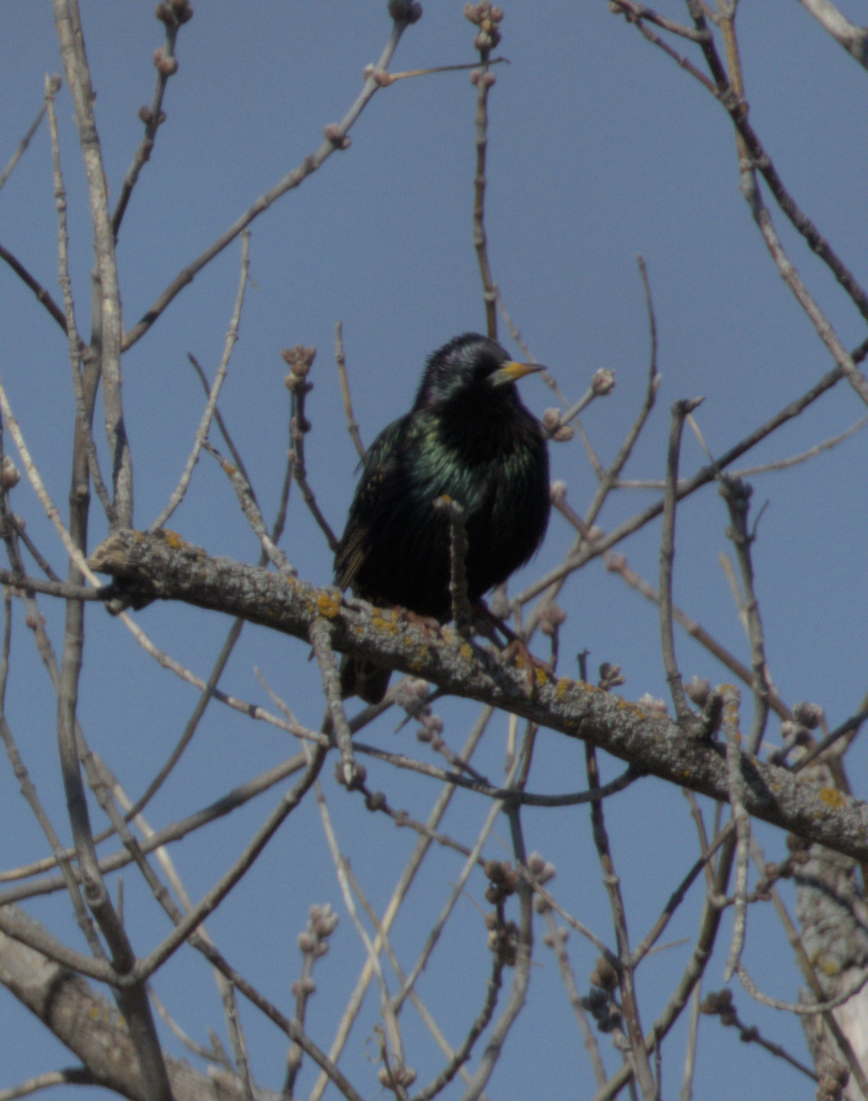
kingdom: Animalia
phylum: Chordata
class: Aves
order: Passeriformes
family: Sturnidae
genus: Sturnus
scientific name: Sturnus vulgaris
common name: Common starling
